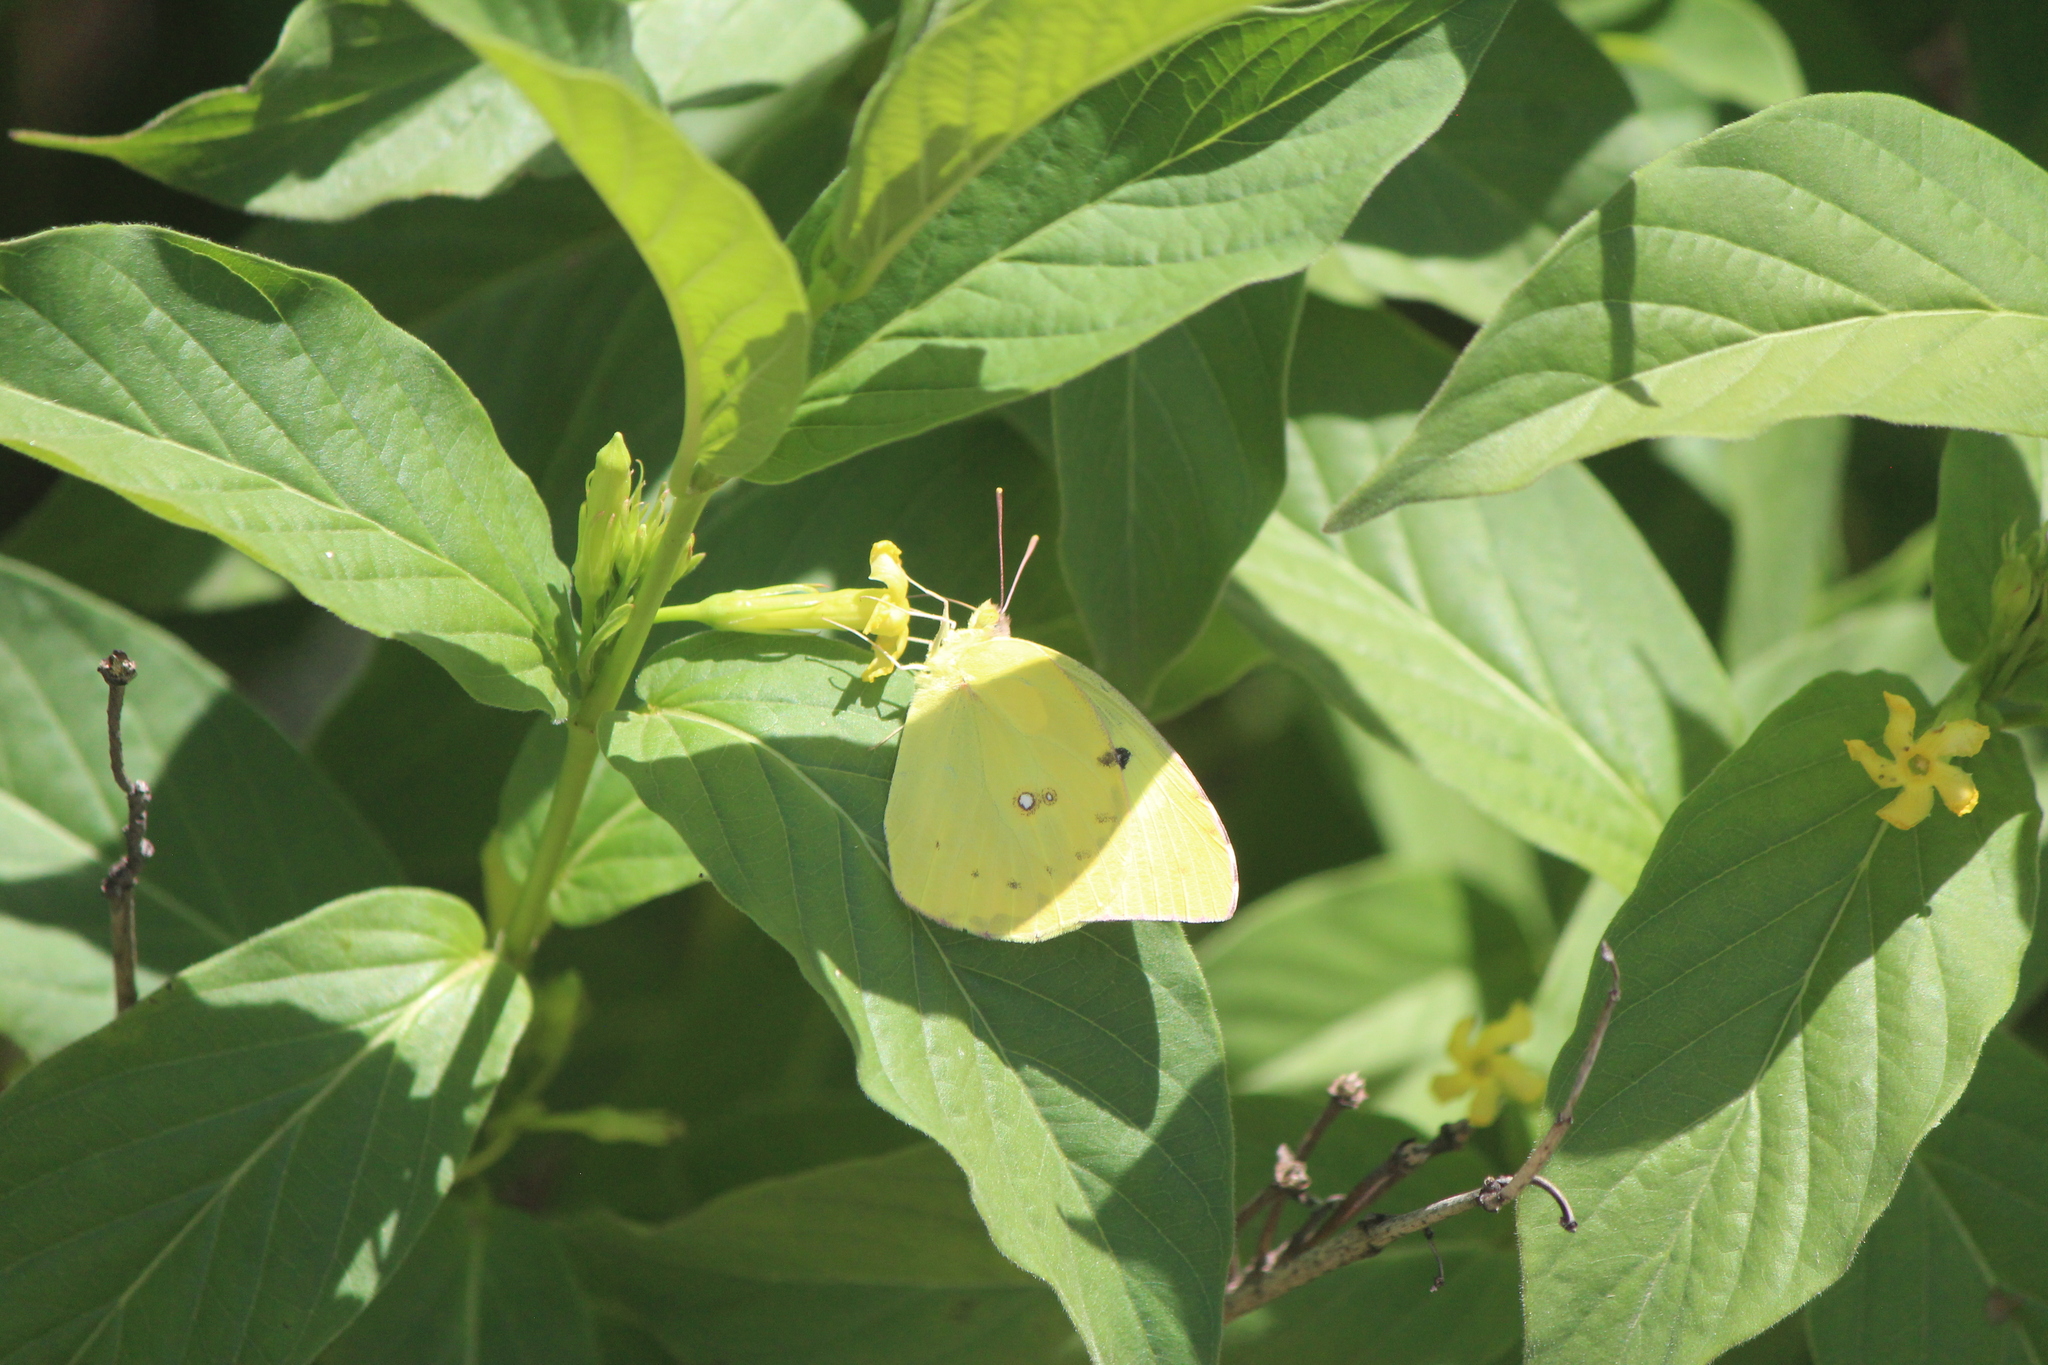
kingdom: Animalia
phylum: Arthropoda
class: Insecta
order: Lepidoptera
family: Pieridae
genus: Zerene
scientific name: Zerene cesonia
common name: Southern dogface
